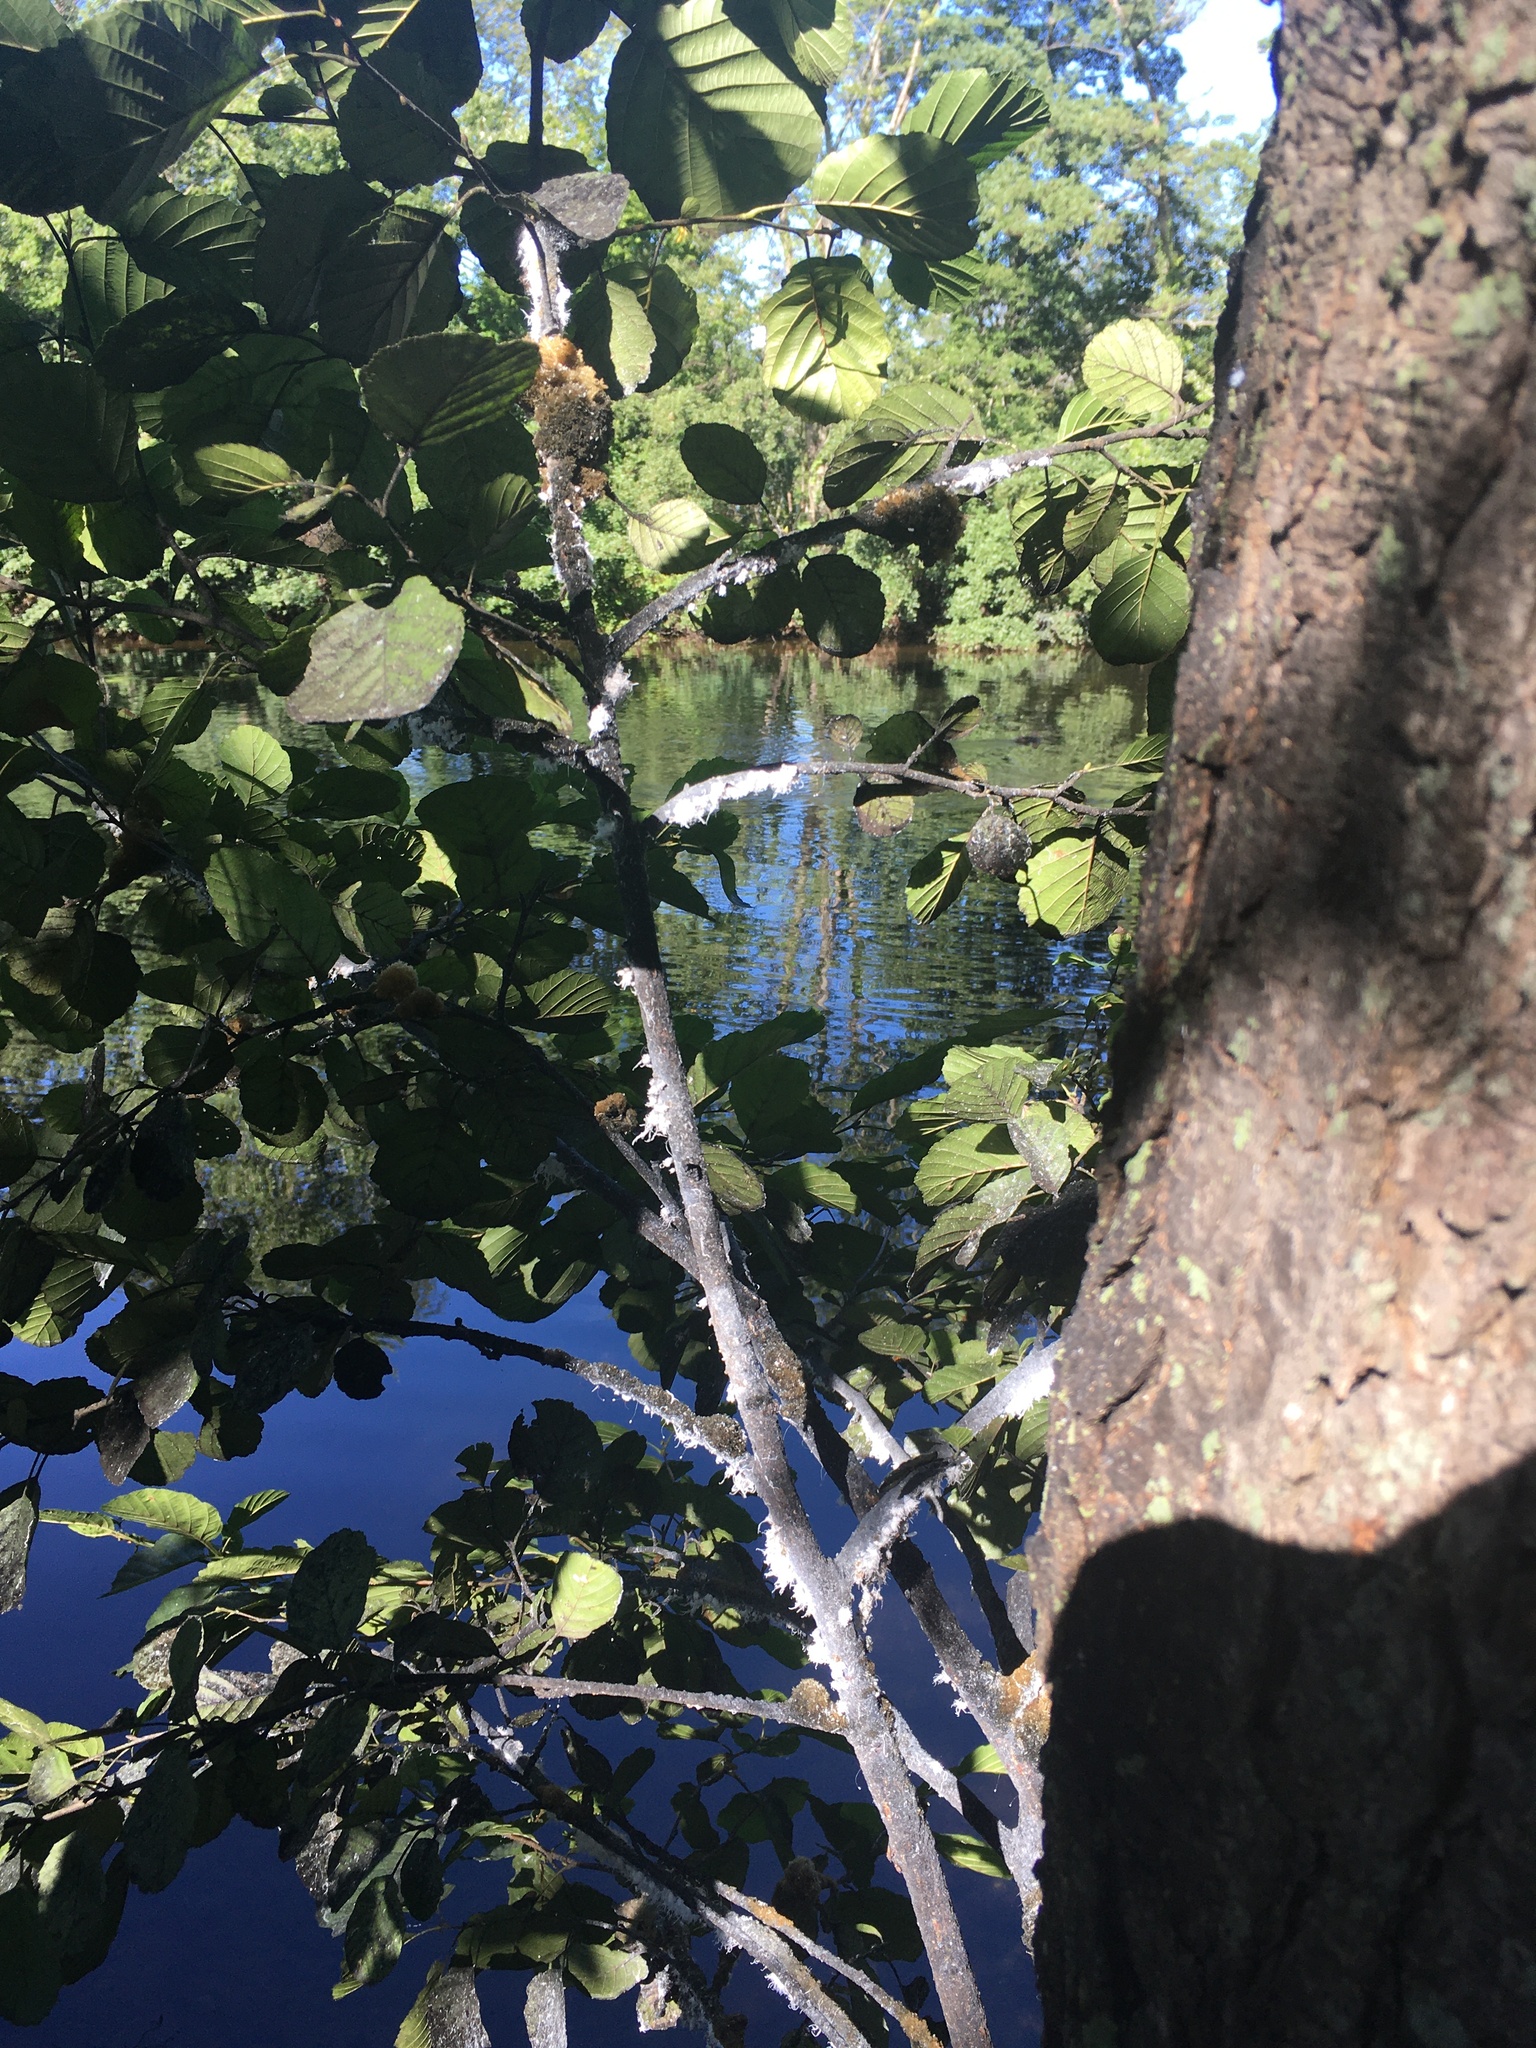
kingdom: Animalia
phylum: Arthropoda
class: Insecta
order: Hemiptera
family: Aphididae
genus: Prociphilus
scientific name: Prociphilus tessellatus
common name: Woolly alder aphid
